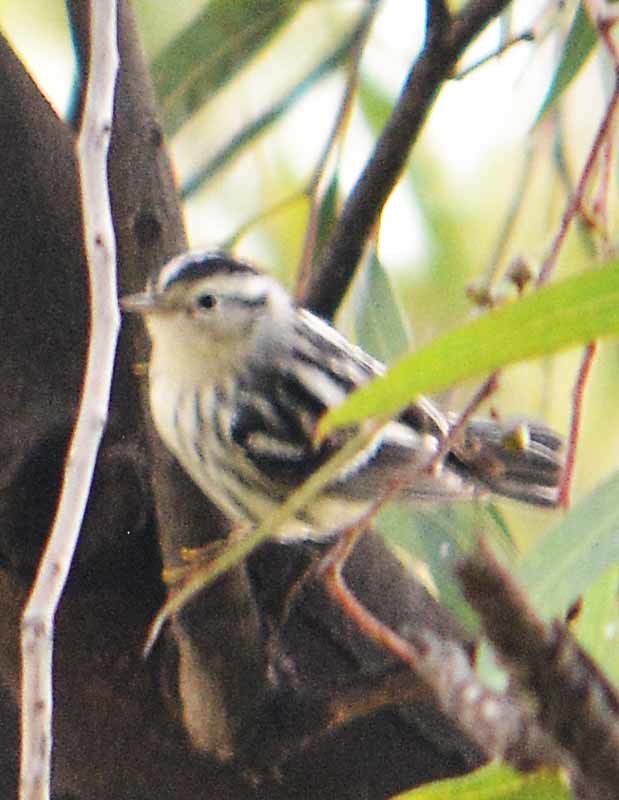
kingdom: Animalia
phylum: Chordata
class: Aves
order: Passeriformes
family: Parulidae
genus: Mniotilta
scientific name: Mniotilta varia
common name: Black-and-white warbler
